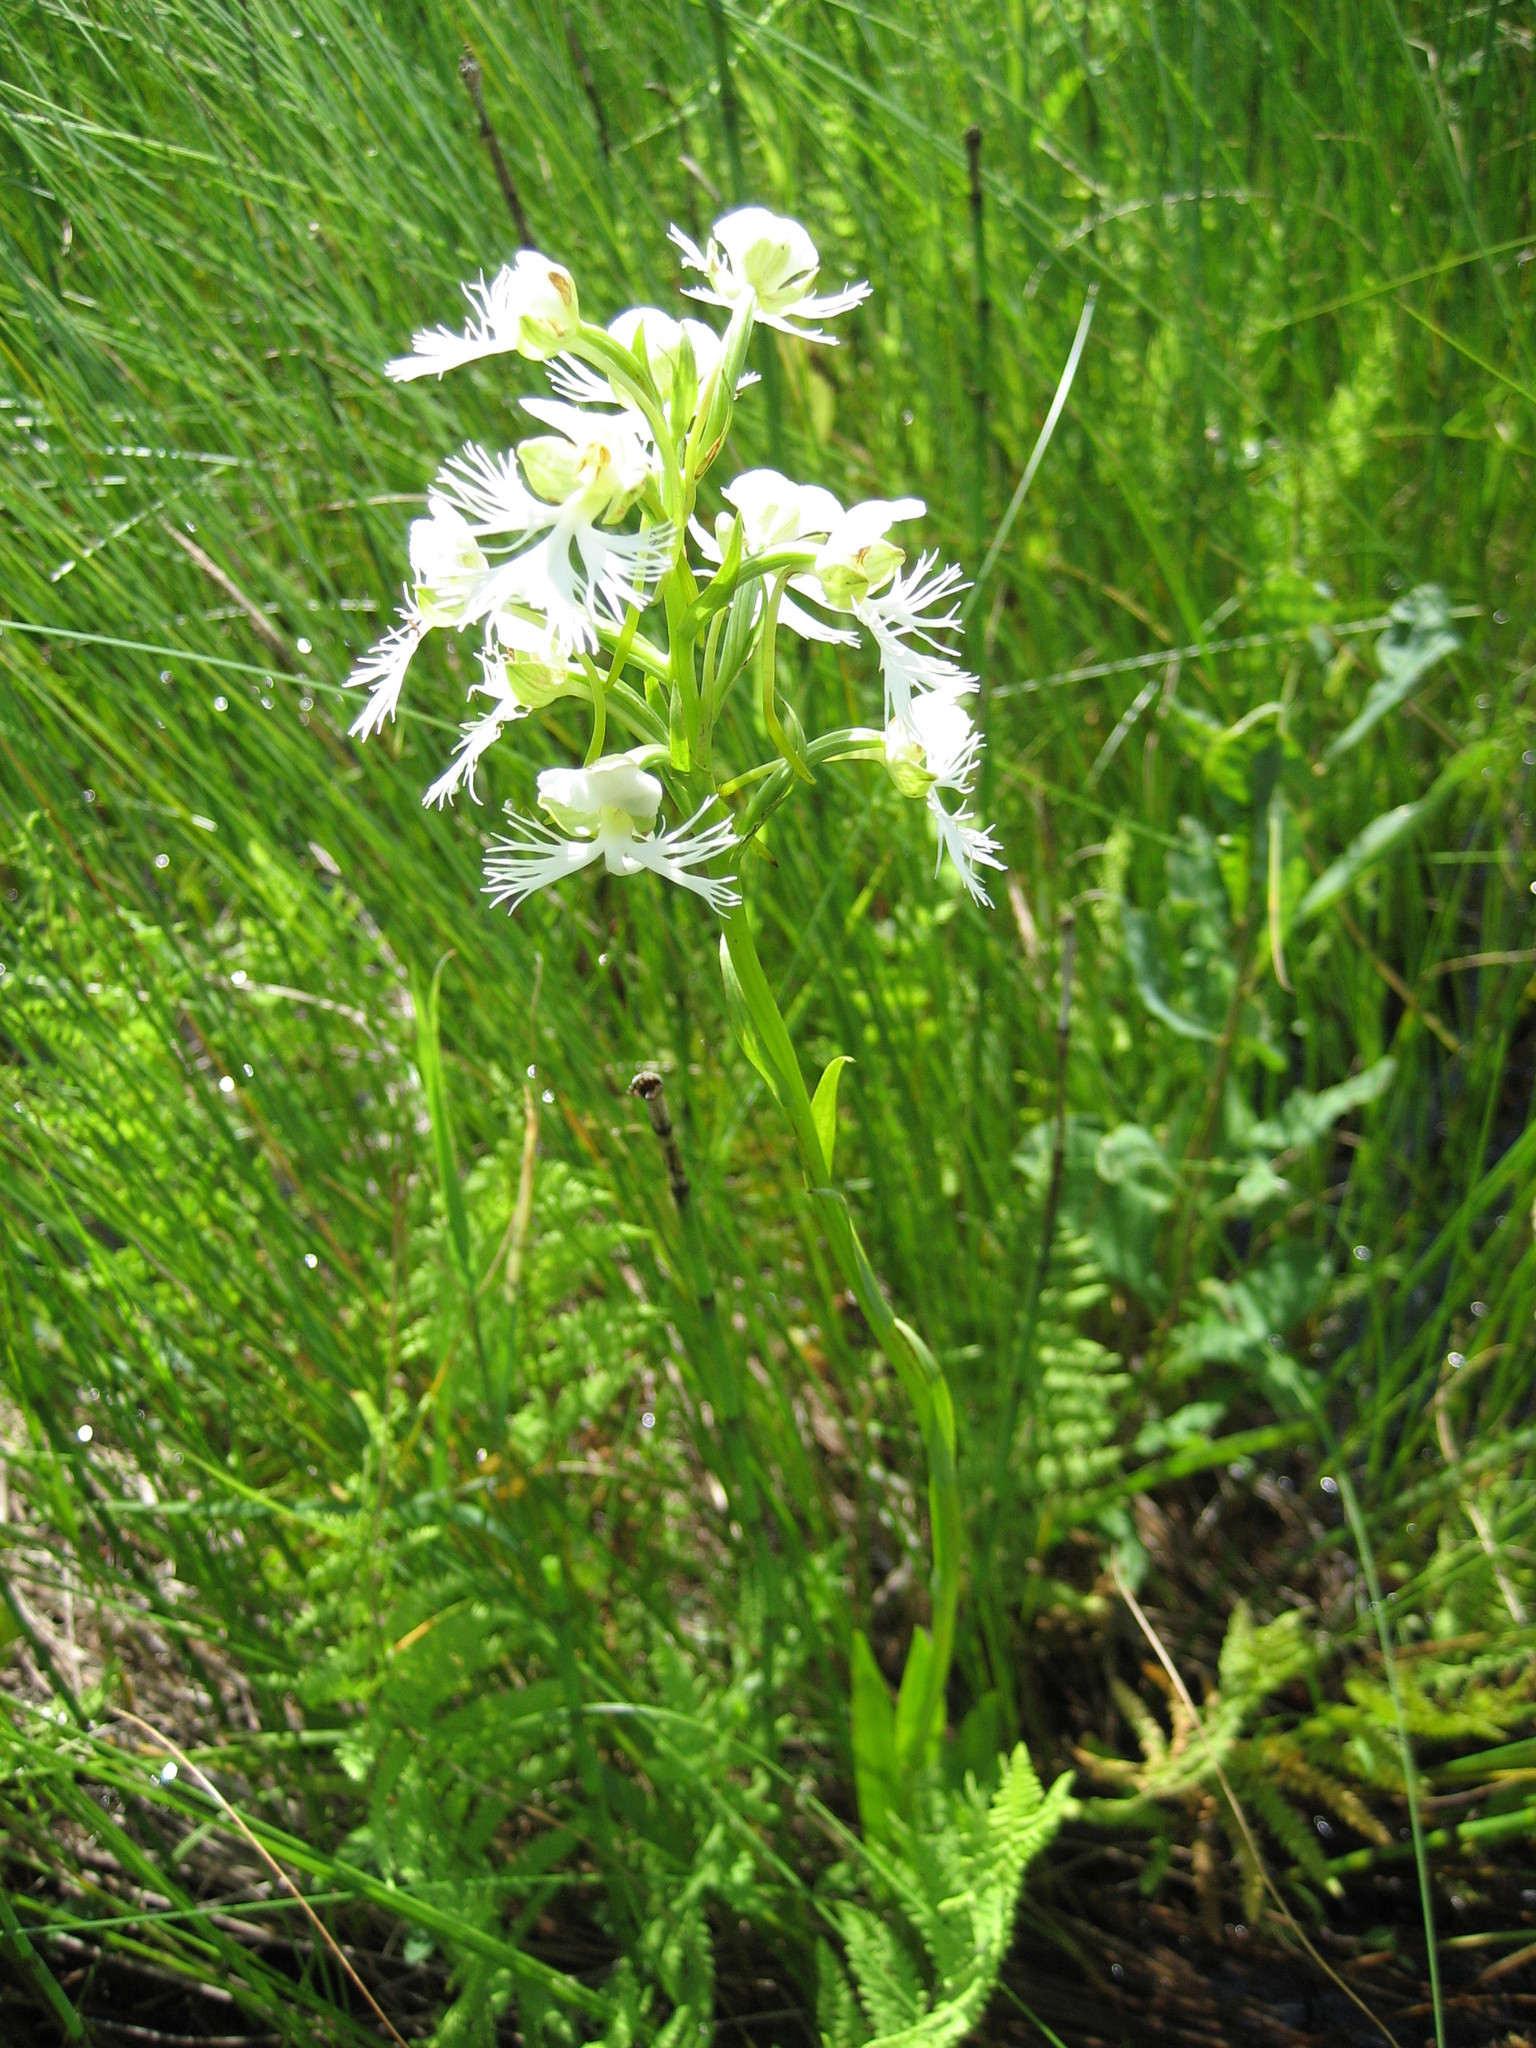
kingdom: Plantae
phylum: Tracheophyta
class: Liliopsida
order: Asparagales
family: Orchidaceae
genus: Platanthera
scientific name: Platanthera leucophaea
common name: Eastern prairie white-fringed orchid
